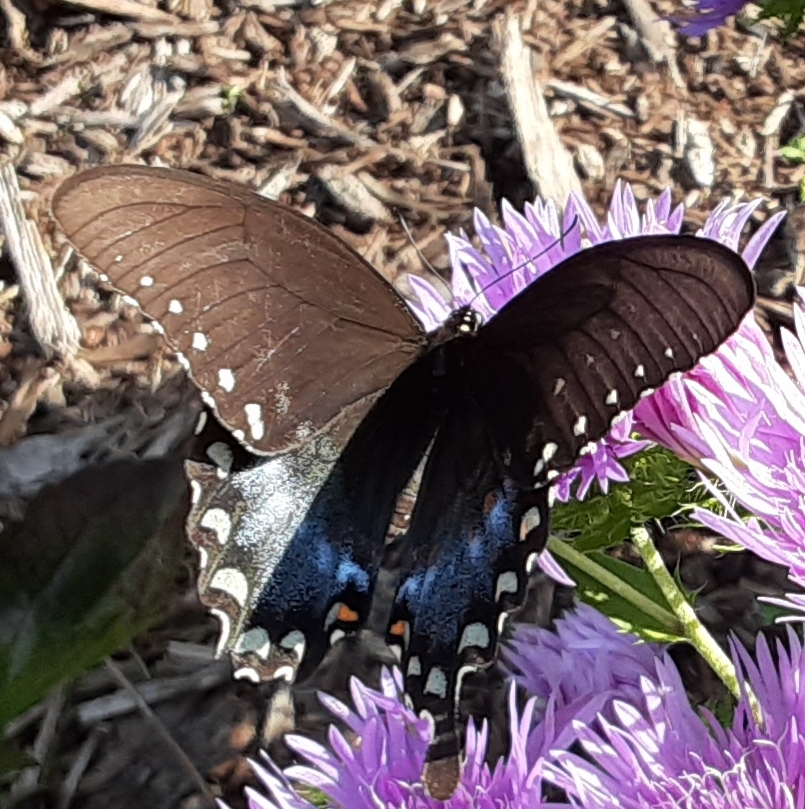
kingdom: Animalia
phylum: Arthropoda
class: Insecta
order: Lepidoptera
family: Papilionidae
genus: Papilio
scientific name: Papilio troilus
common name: Spicebush swallowtail
